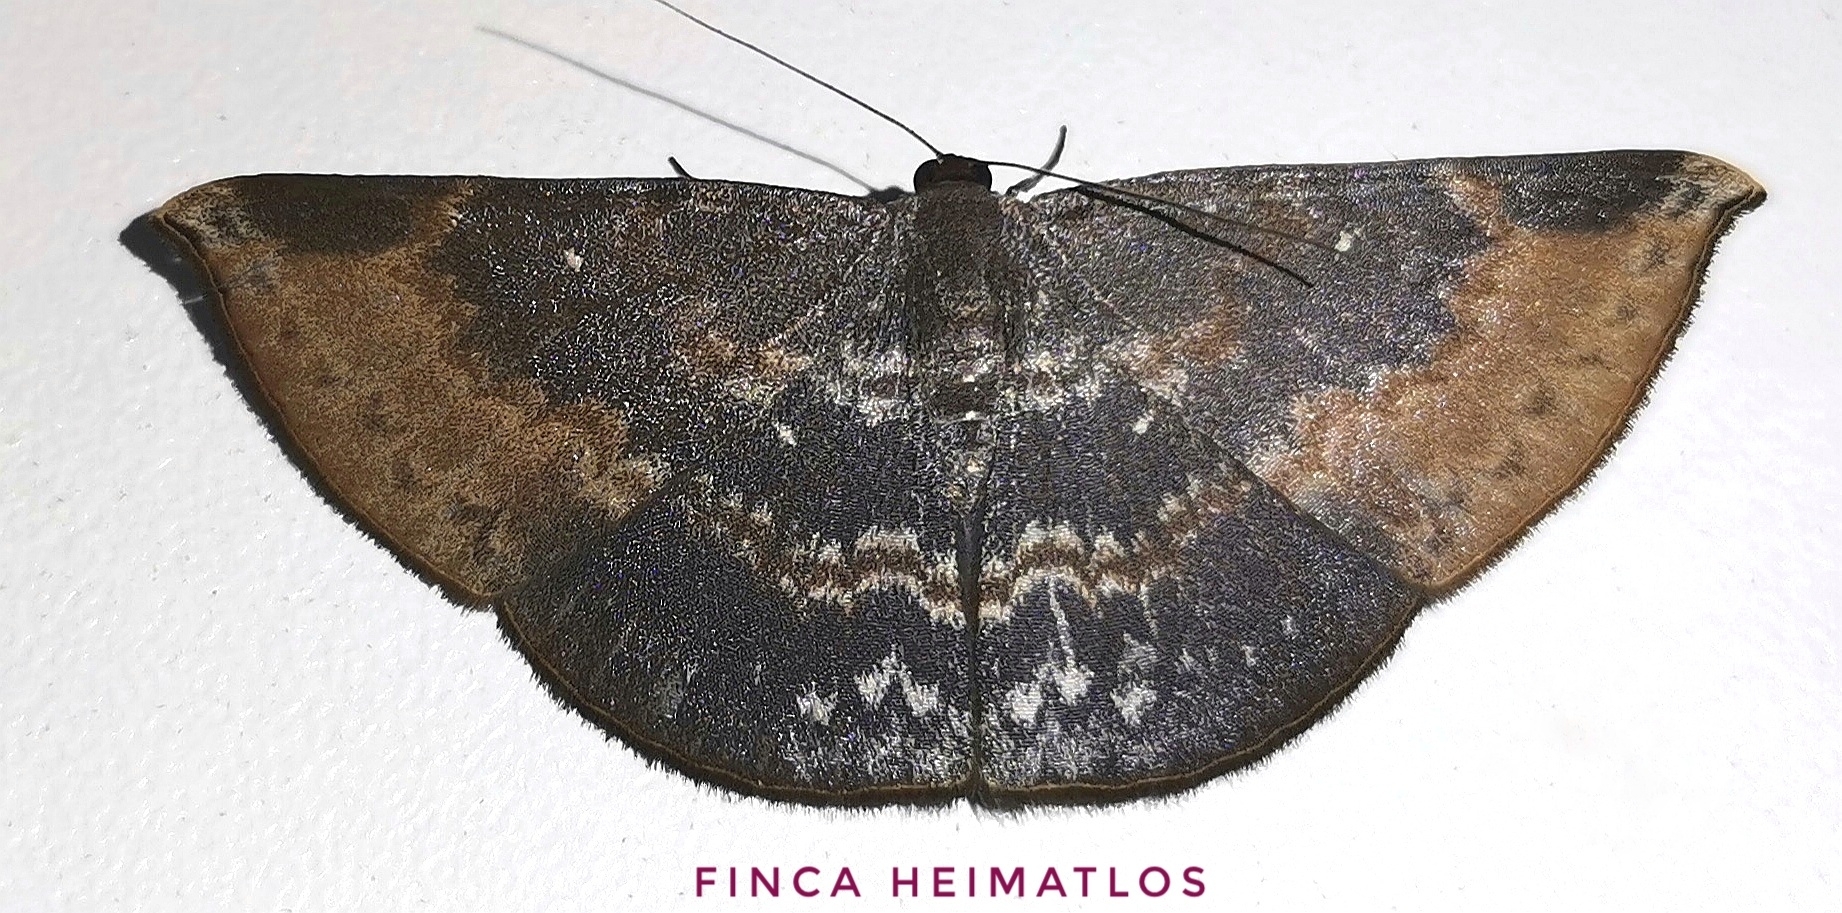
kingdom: Animalia
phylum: Arthropoda
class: Insecta
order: Lepidoptera
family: Geometridae
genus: Dolichoneura
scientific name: Dolichoneura oxypteraria
